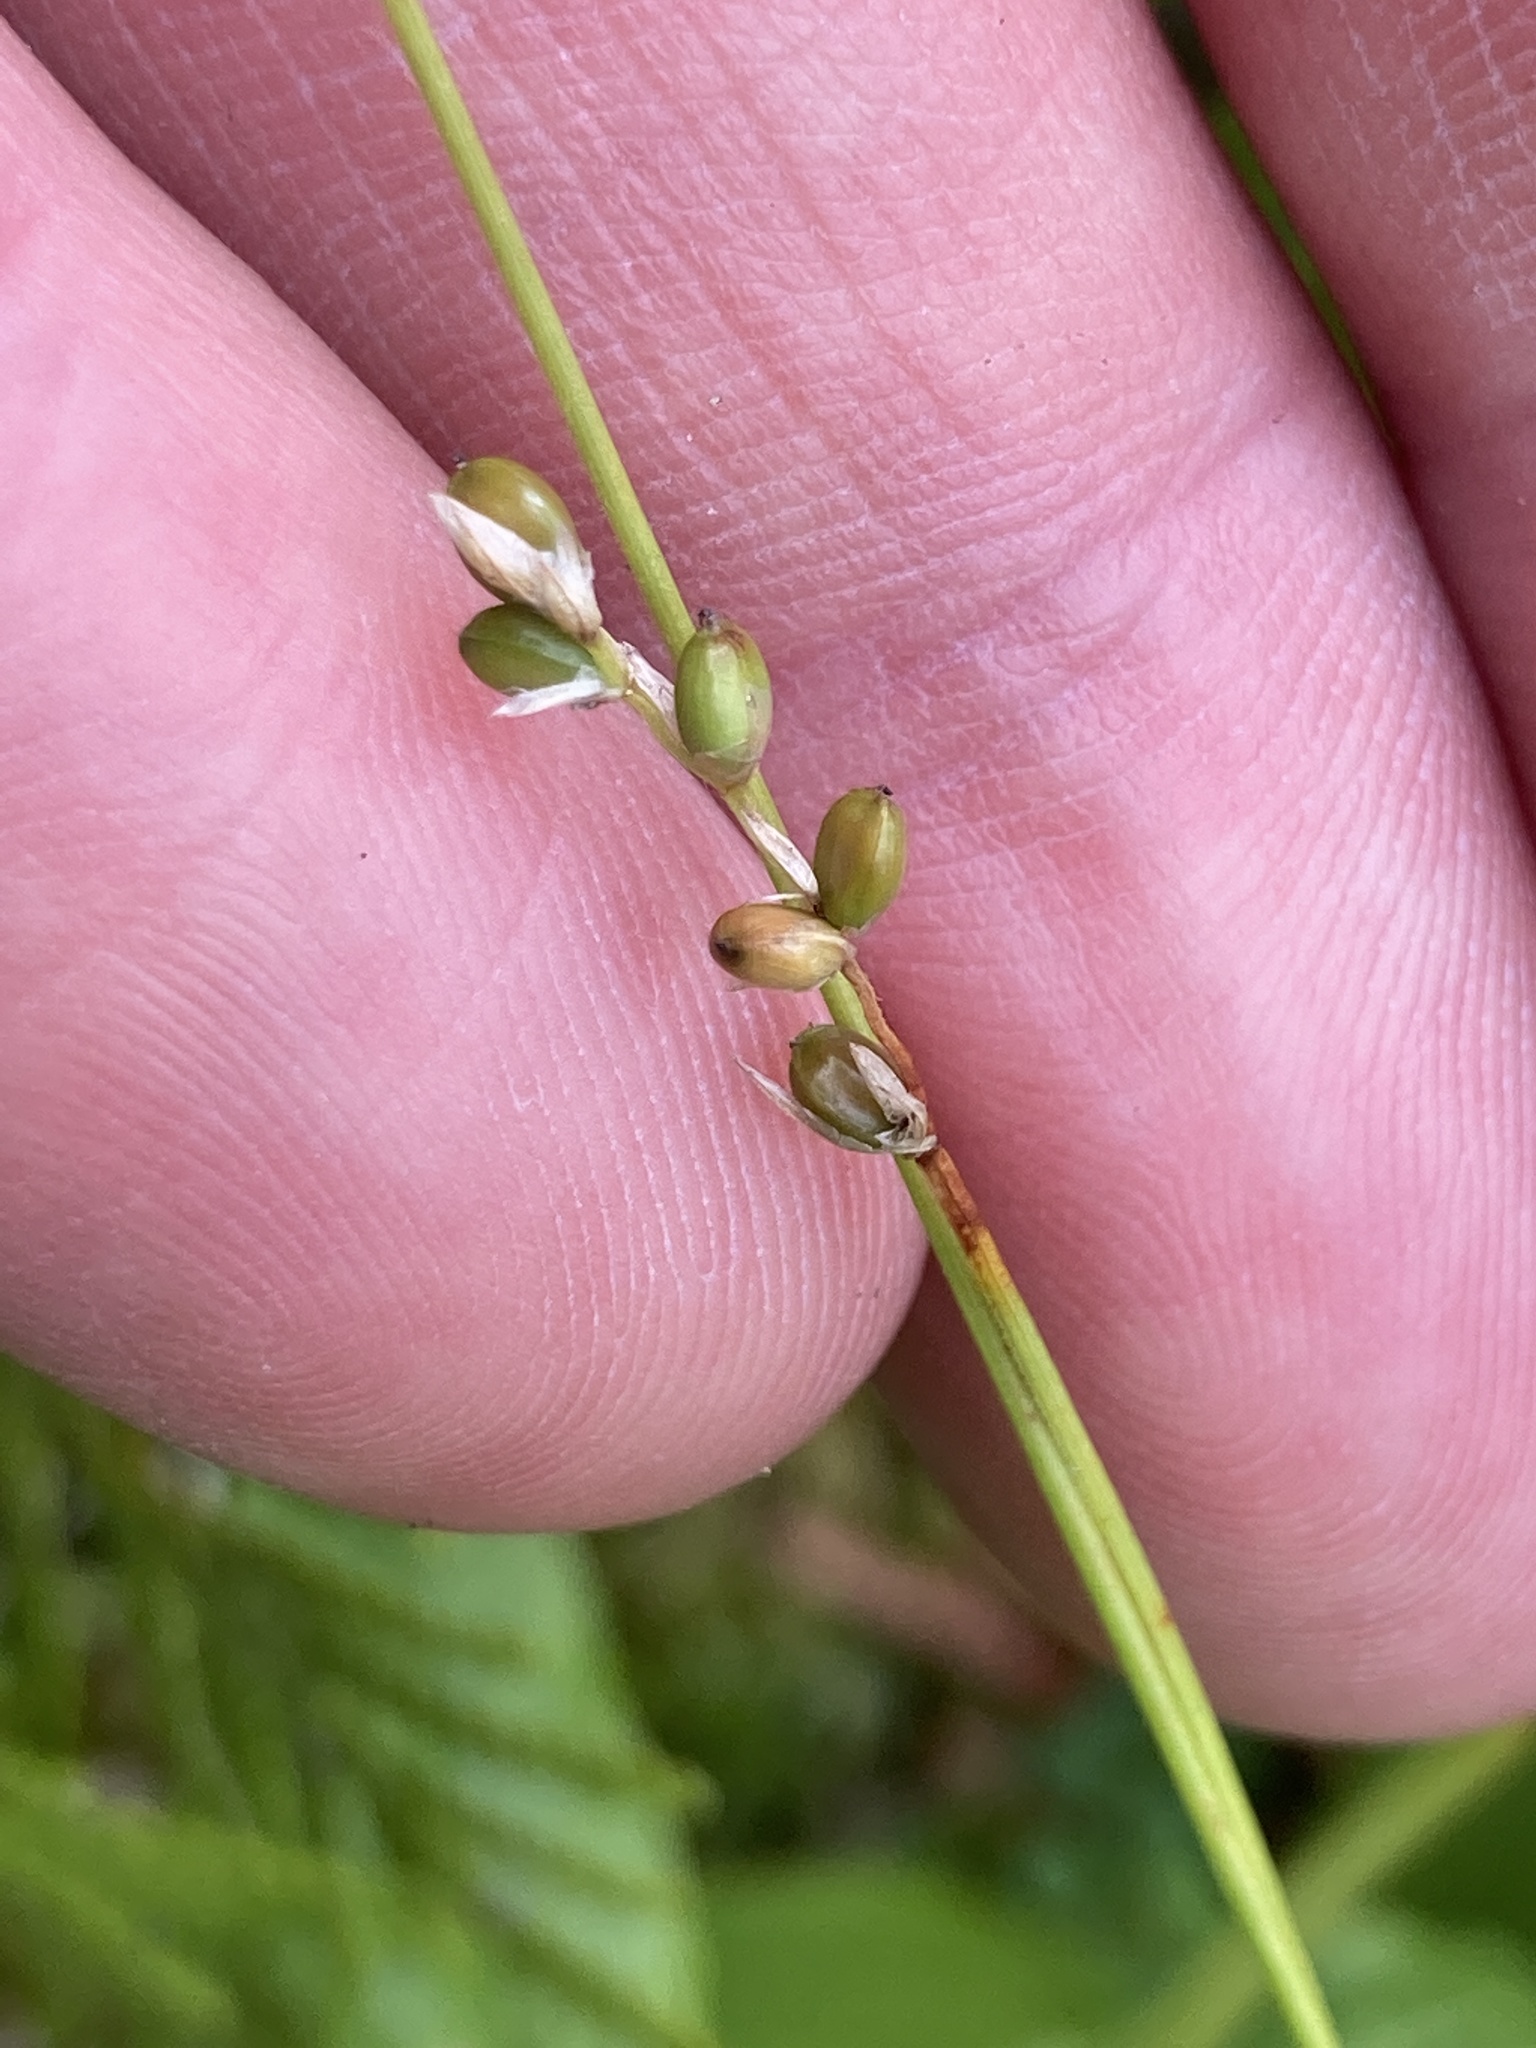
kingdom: Plantae
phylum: Tracheophyta
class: Liliopsida
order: Poales
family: Cyperaceae
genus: Carex
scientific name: Carex disperma
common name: Short-leaved sedge
